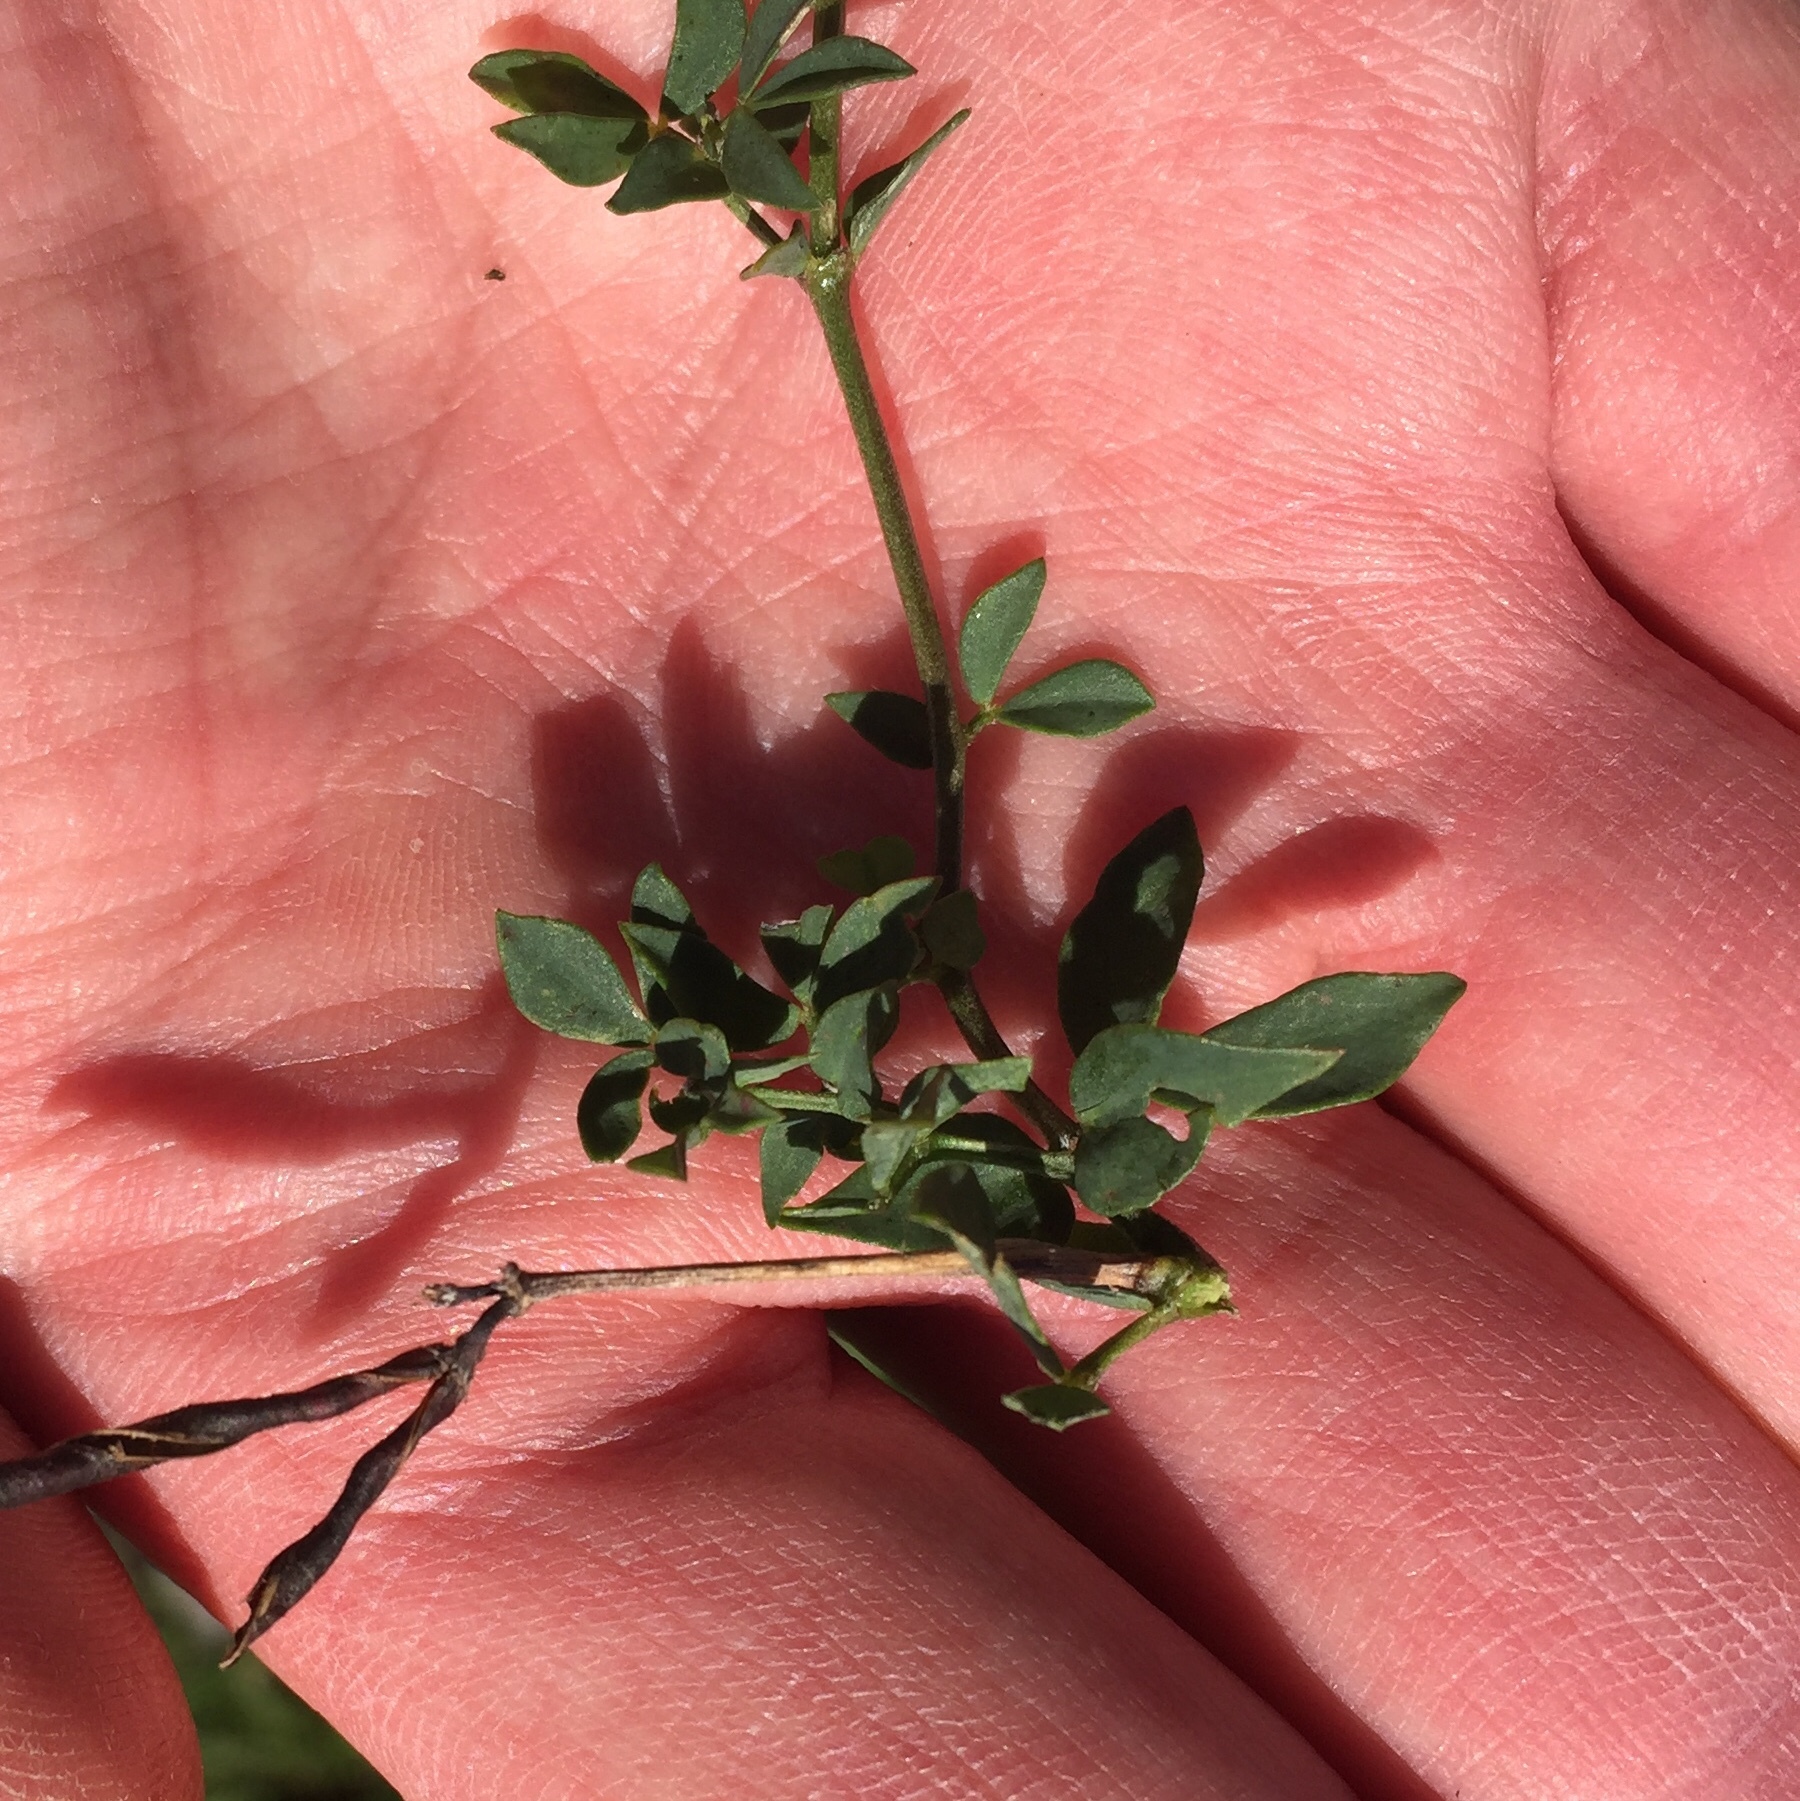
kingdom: Plantae
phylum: Tracheophyta
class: Magnoliopsida
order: Fabales
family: Fabaceae
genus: Lotus
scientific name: Lotus corniculatus
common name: Common bird's-foot-trefoil
